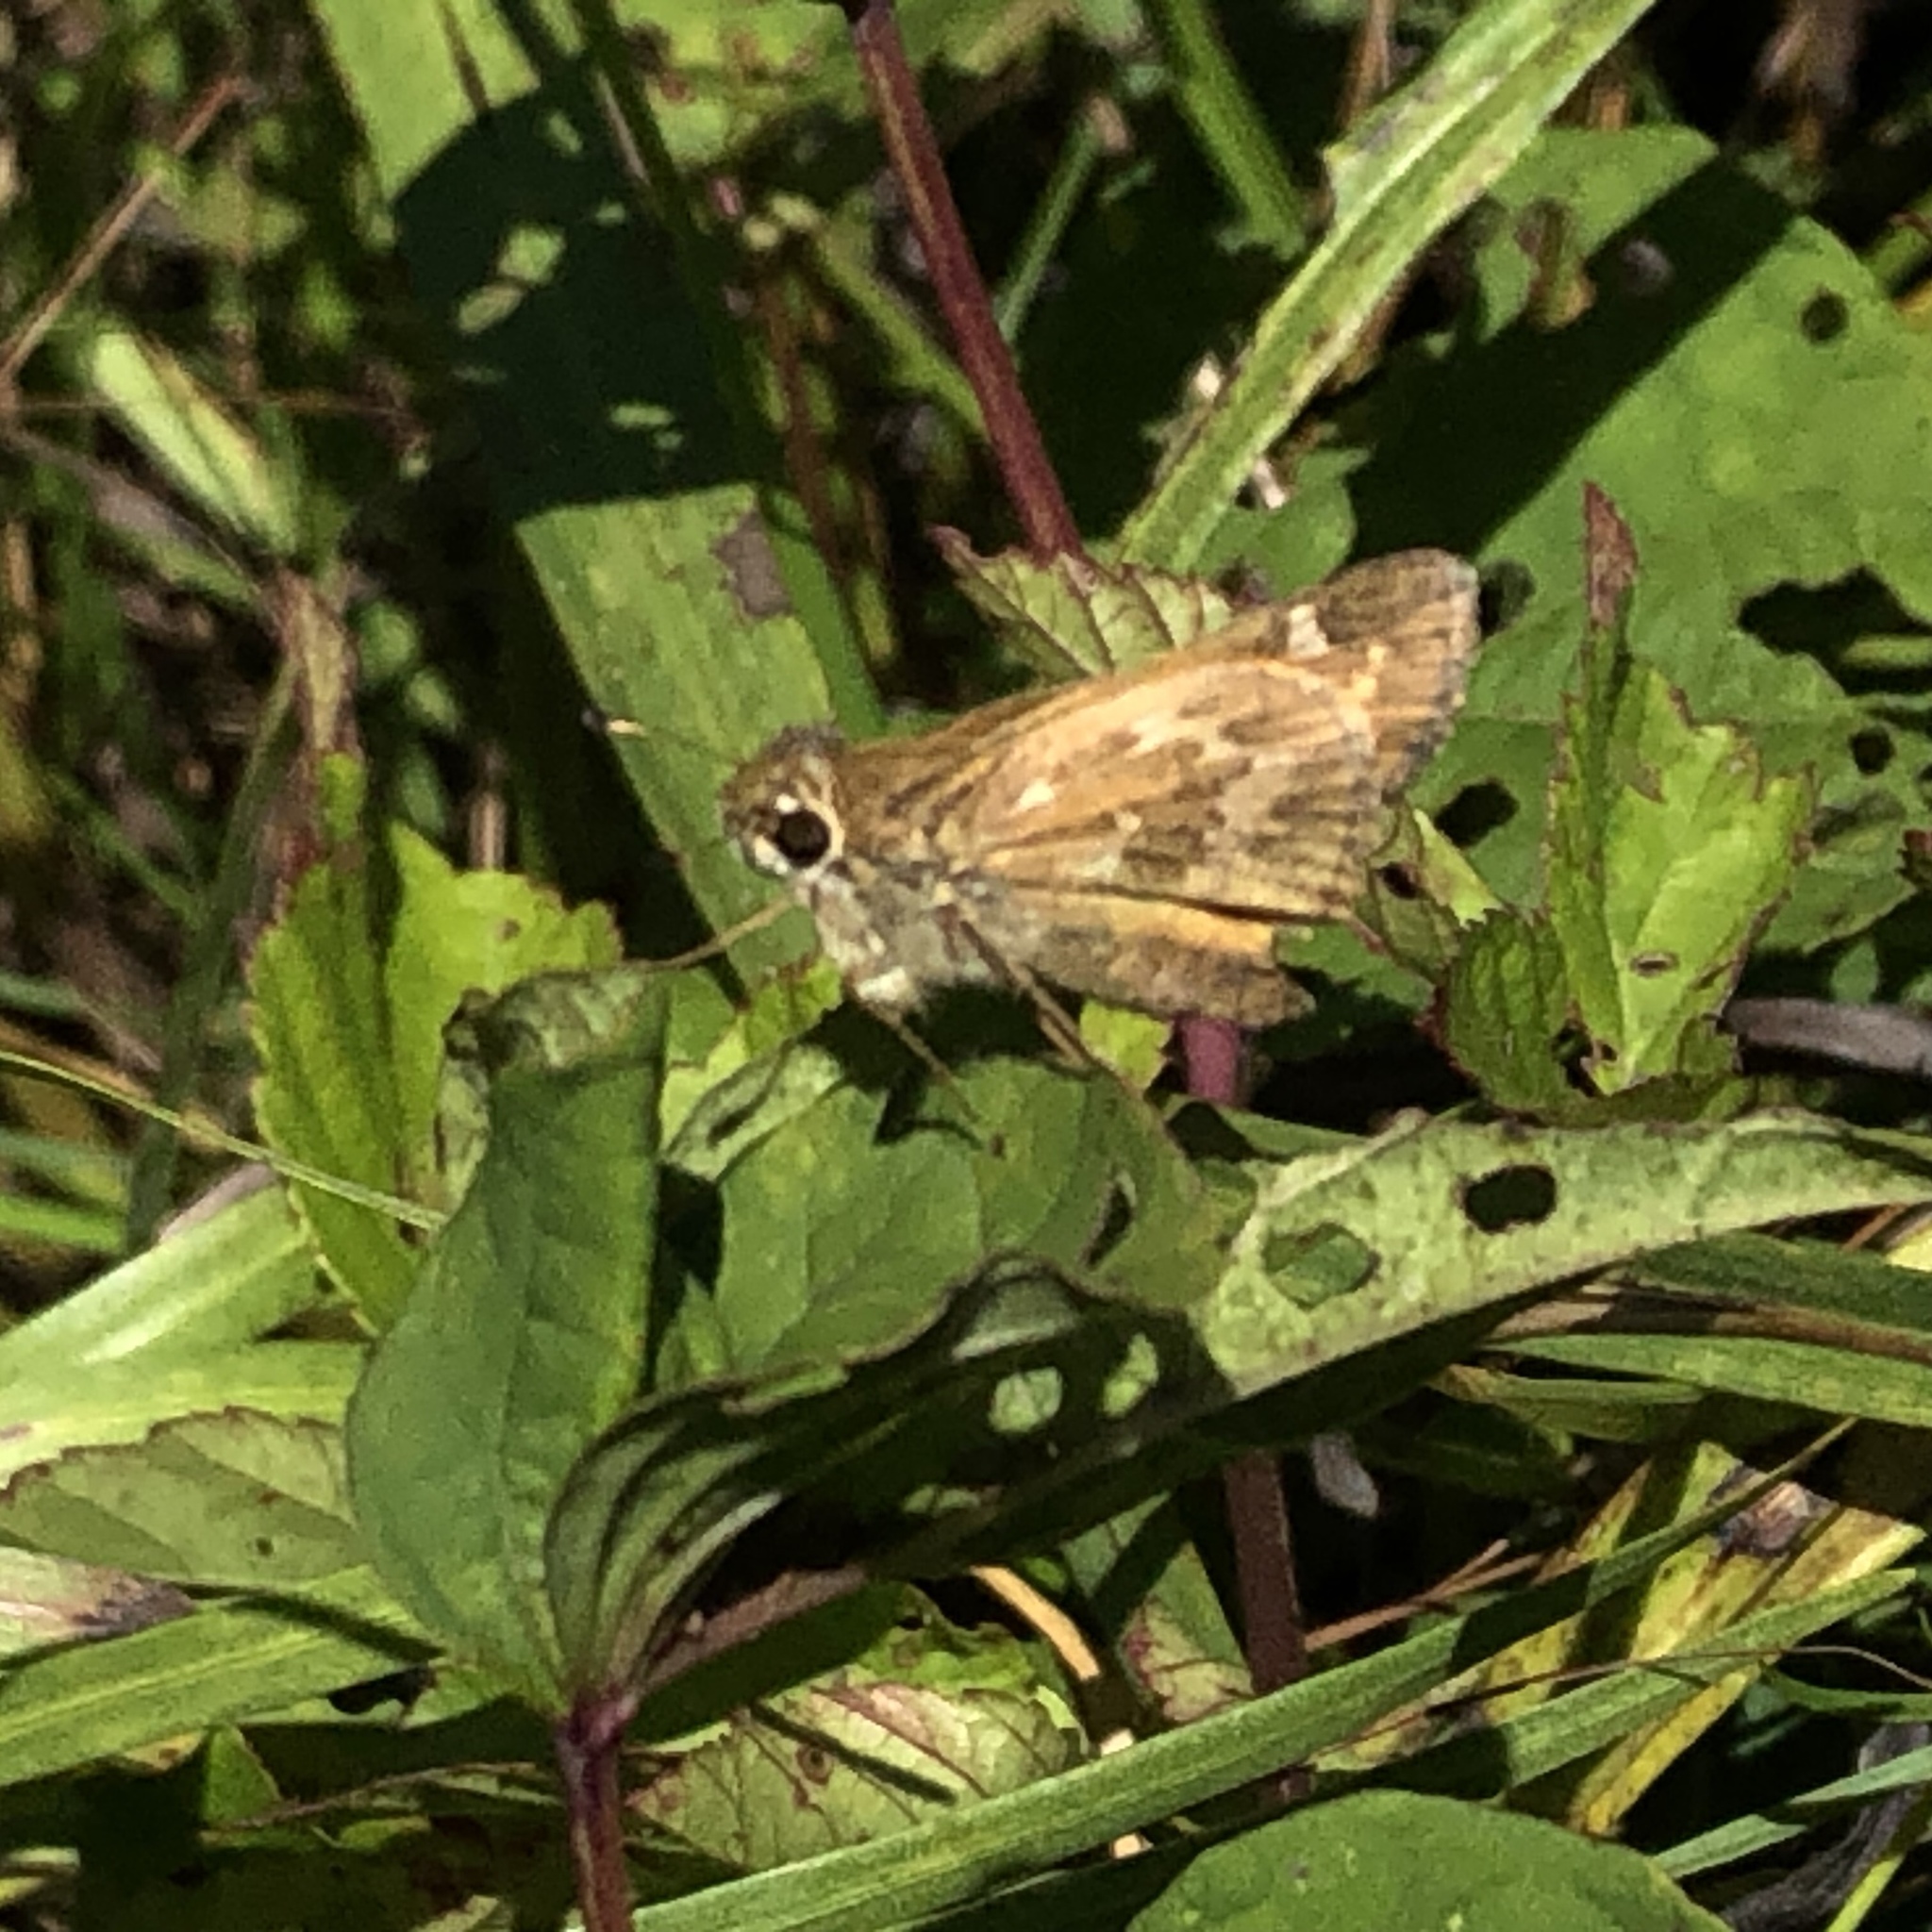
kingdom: Animalia
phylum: Arthropoda
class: Insecta
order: Lepidoptera
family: Hesperiidae
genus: Atalopedes
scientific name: Atalopedes
